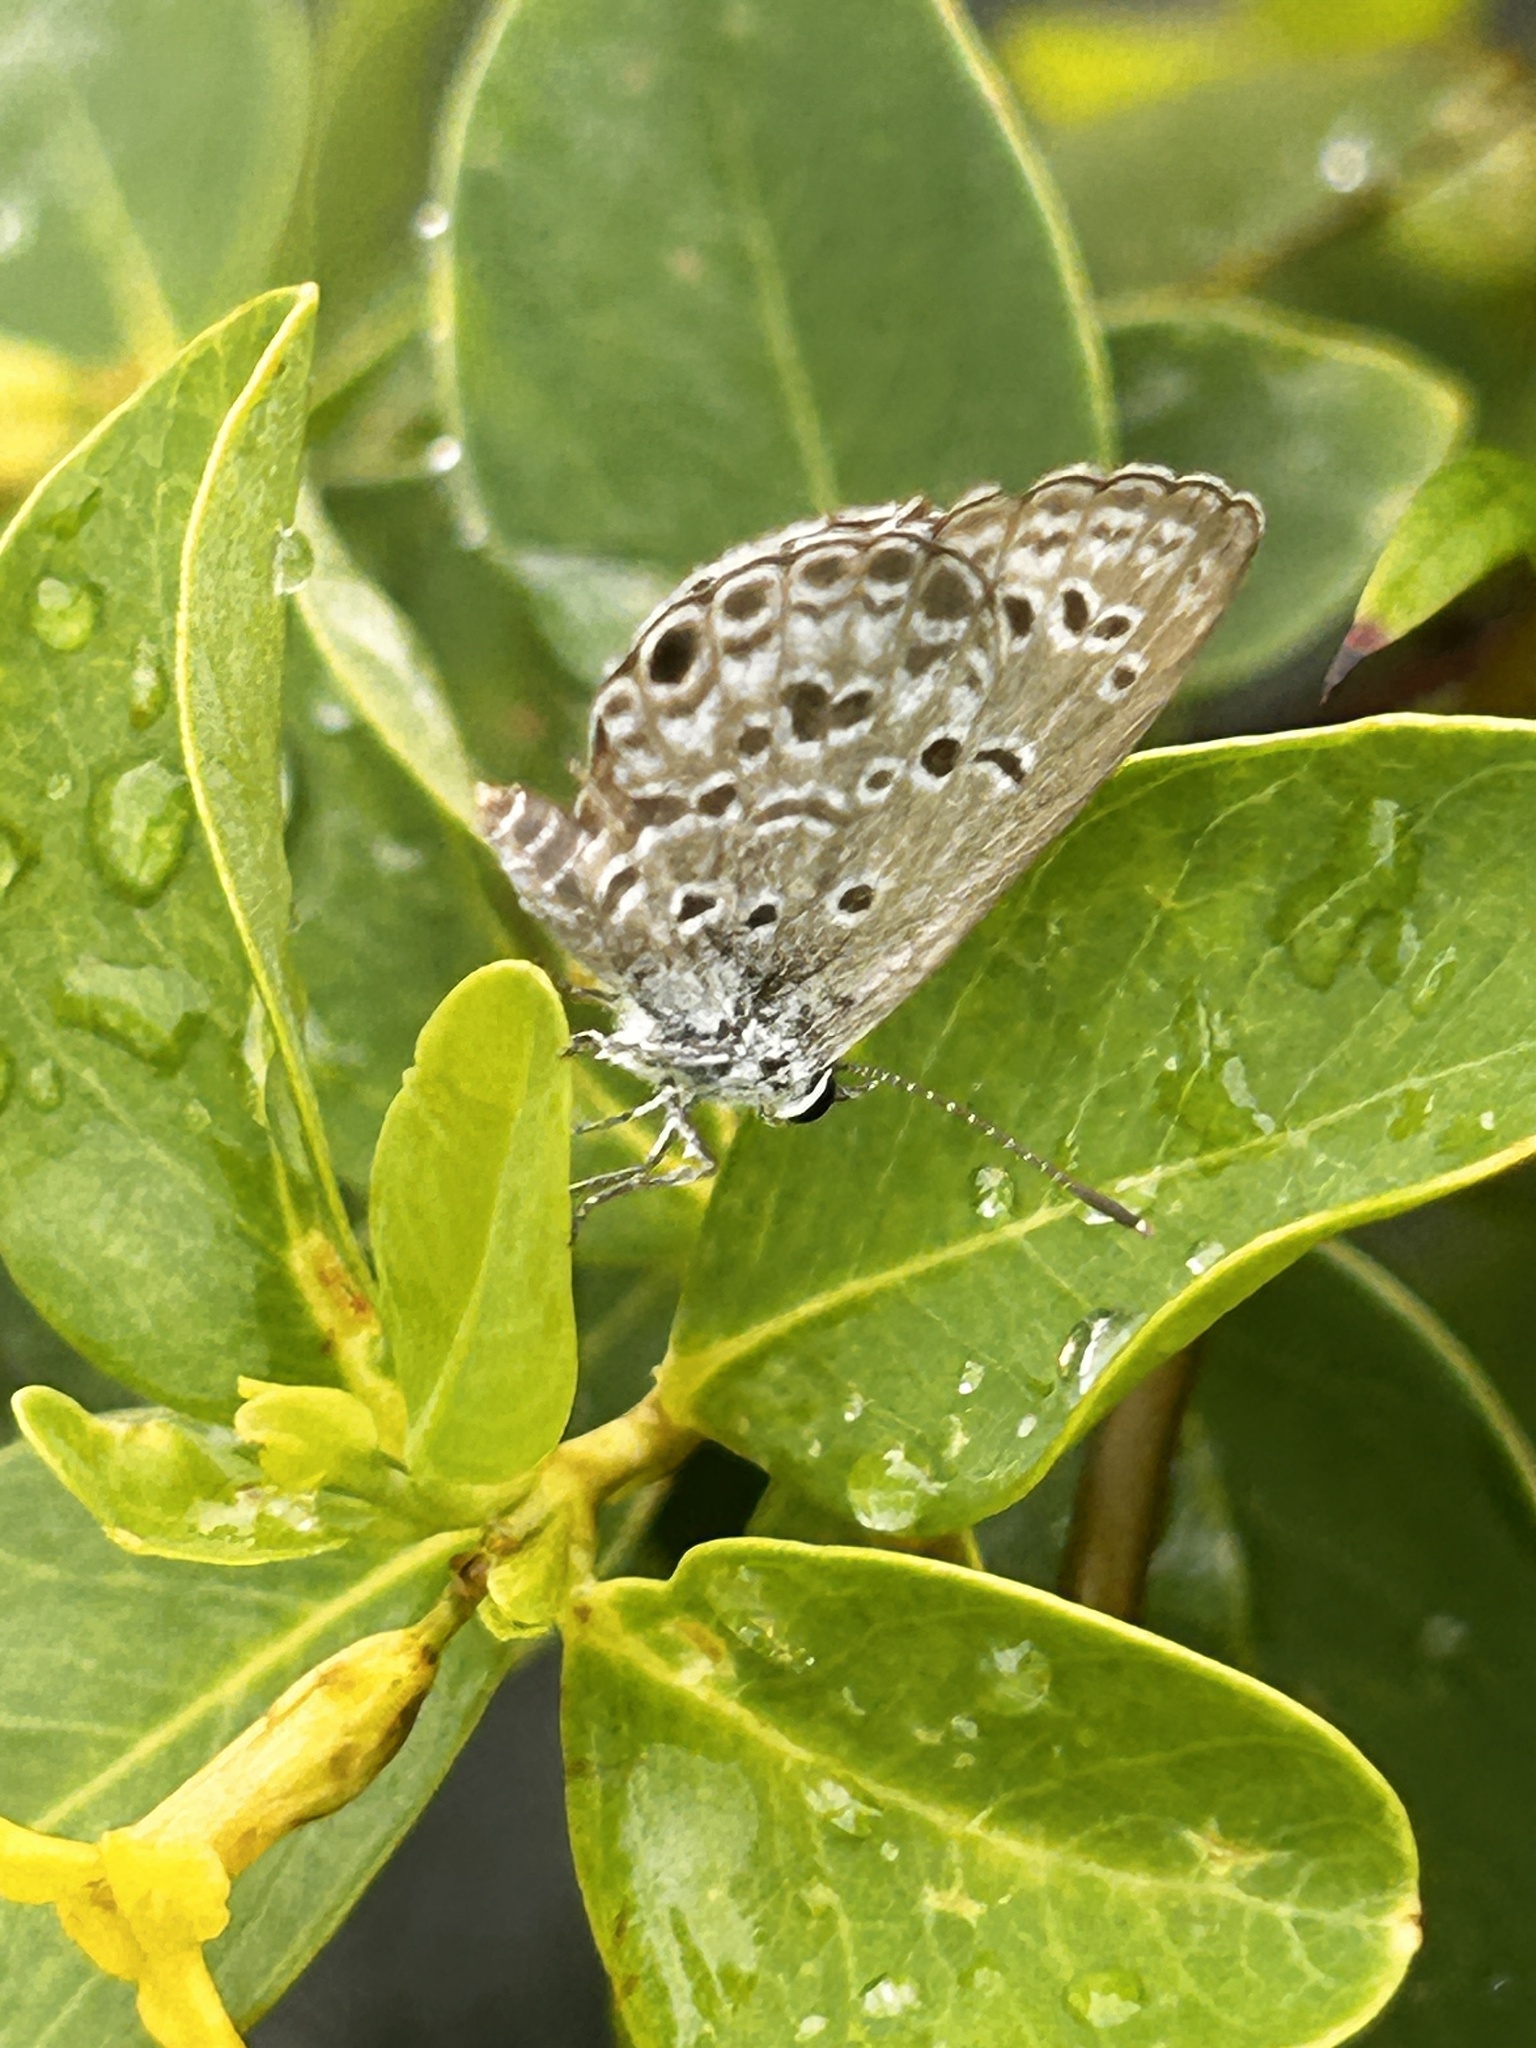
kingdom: Animalia
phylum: Arthropoda
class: Insecta
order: Lepidoptera
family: Lycaenidae
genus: Chilades
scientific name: Chilades laius
